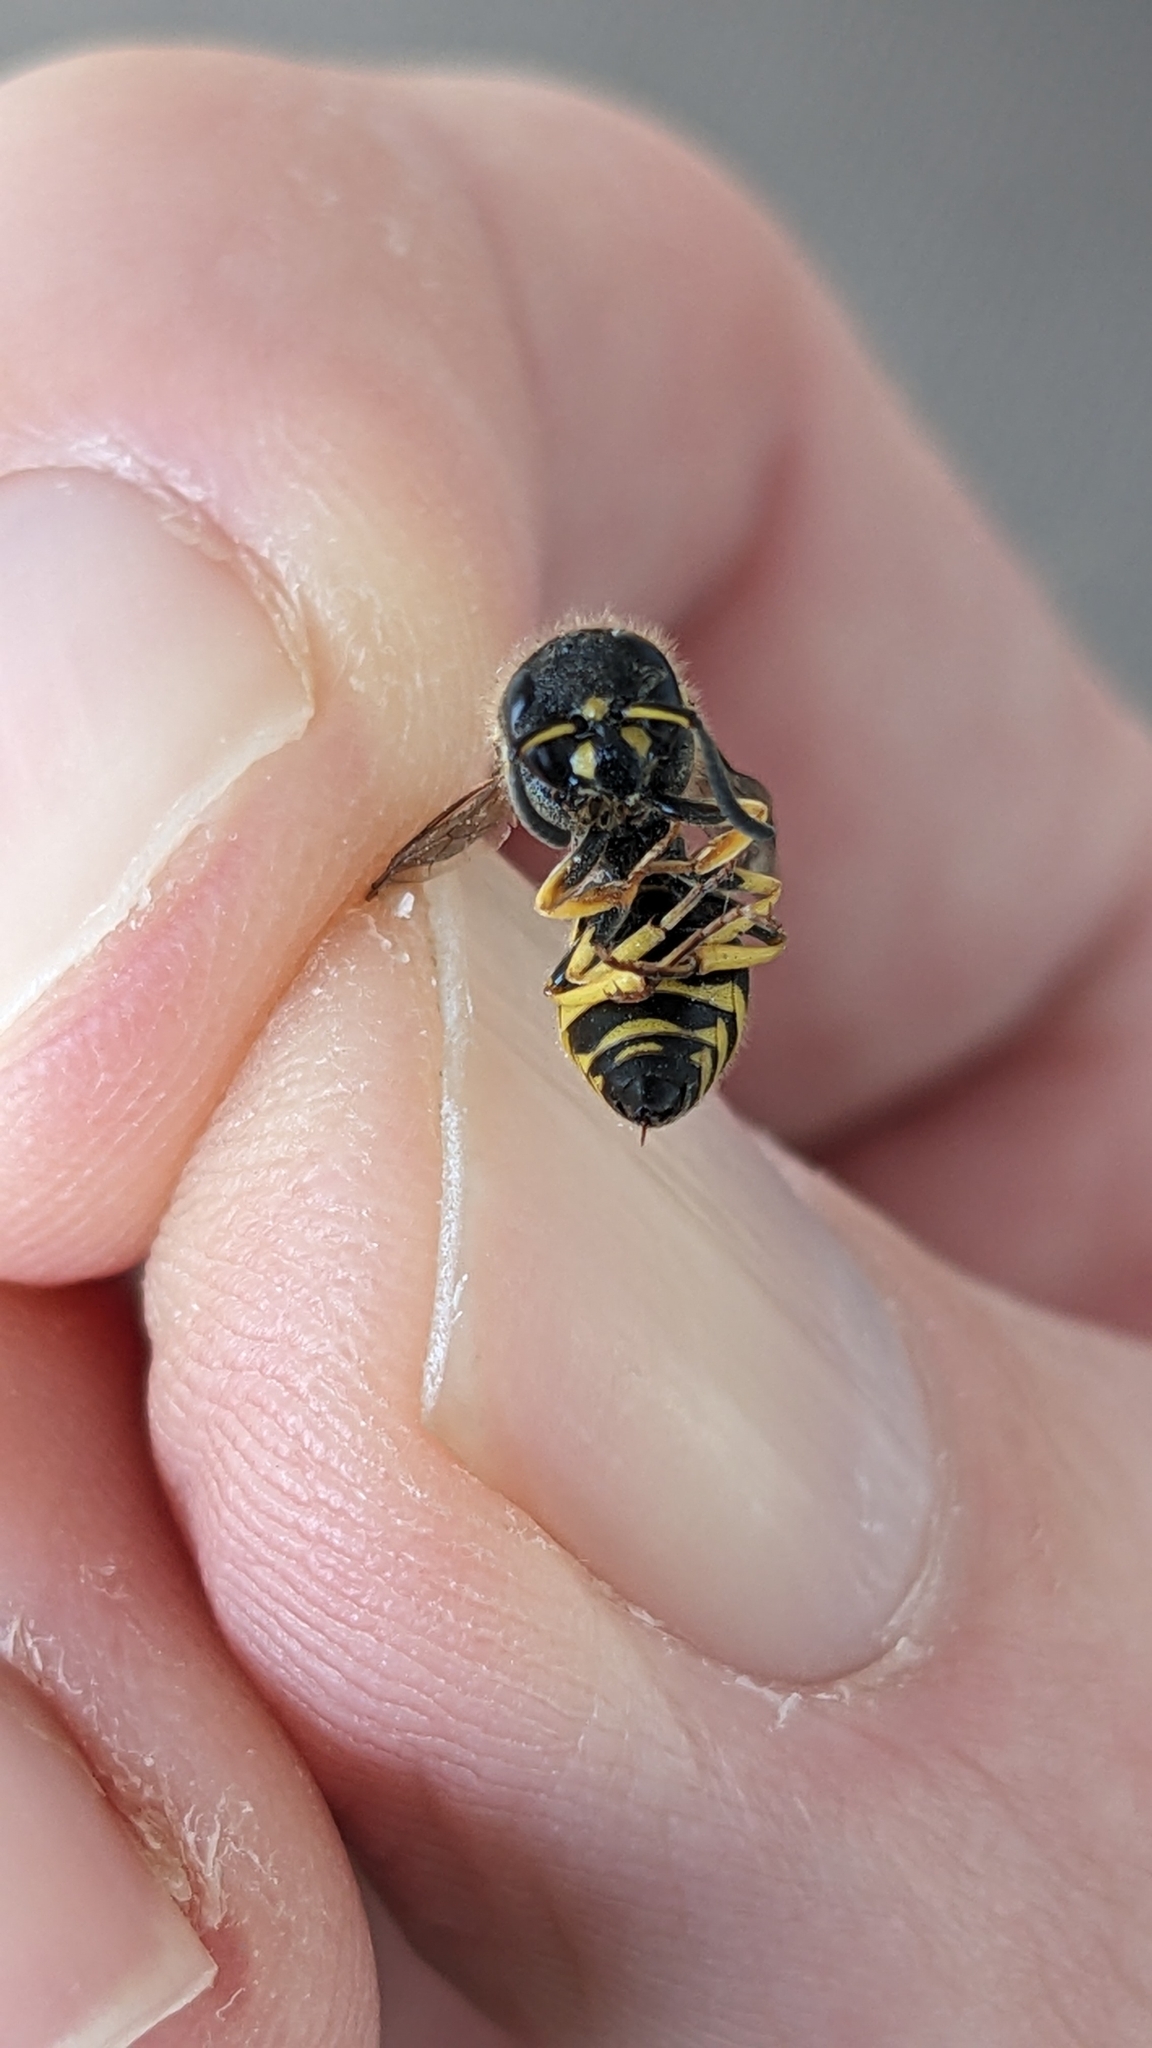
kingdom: Animalia
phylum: Arthropoda
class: Insecta
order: Hymenoptera
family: Vespidae
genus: Ancistrocerus
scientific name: Ancistrocerus gazella
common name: European tube wasp
